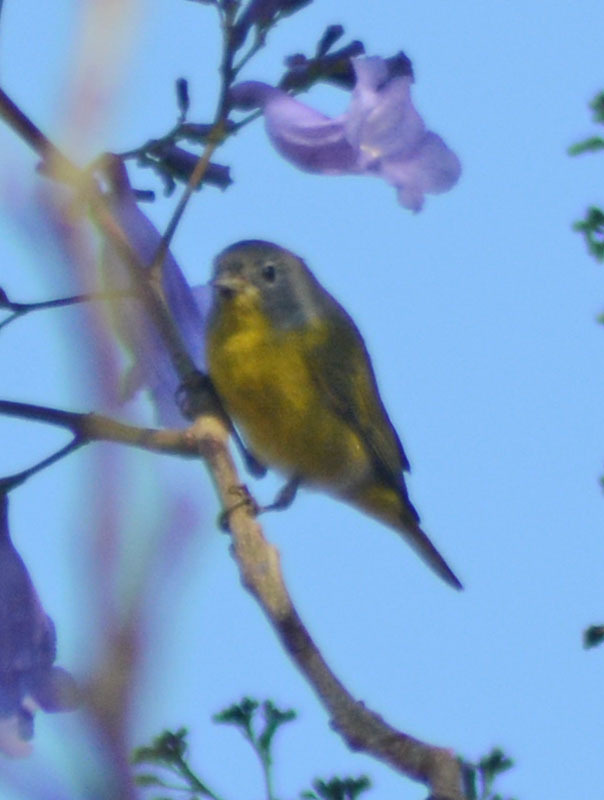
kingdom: Animalia
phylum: Chordata
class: Aves
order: Passeriformes
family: Parulidae
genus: Leiothlypis
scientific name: Leiothlypis ruficapilla
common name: Nashville warbler
